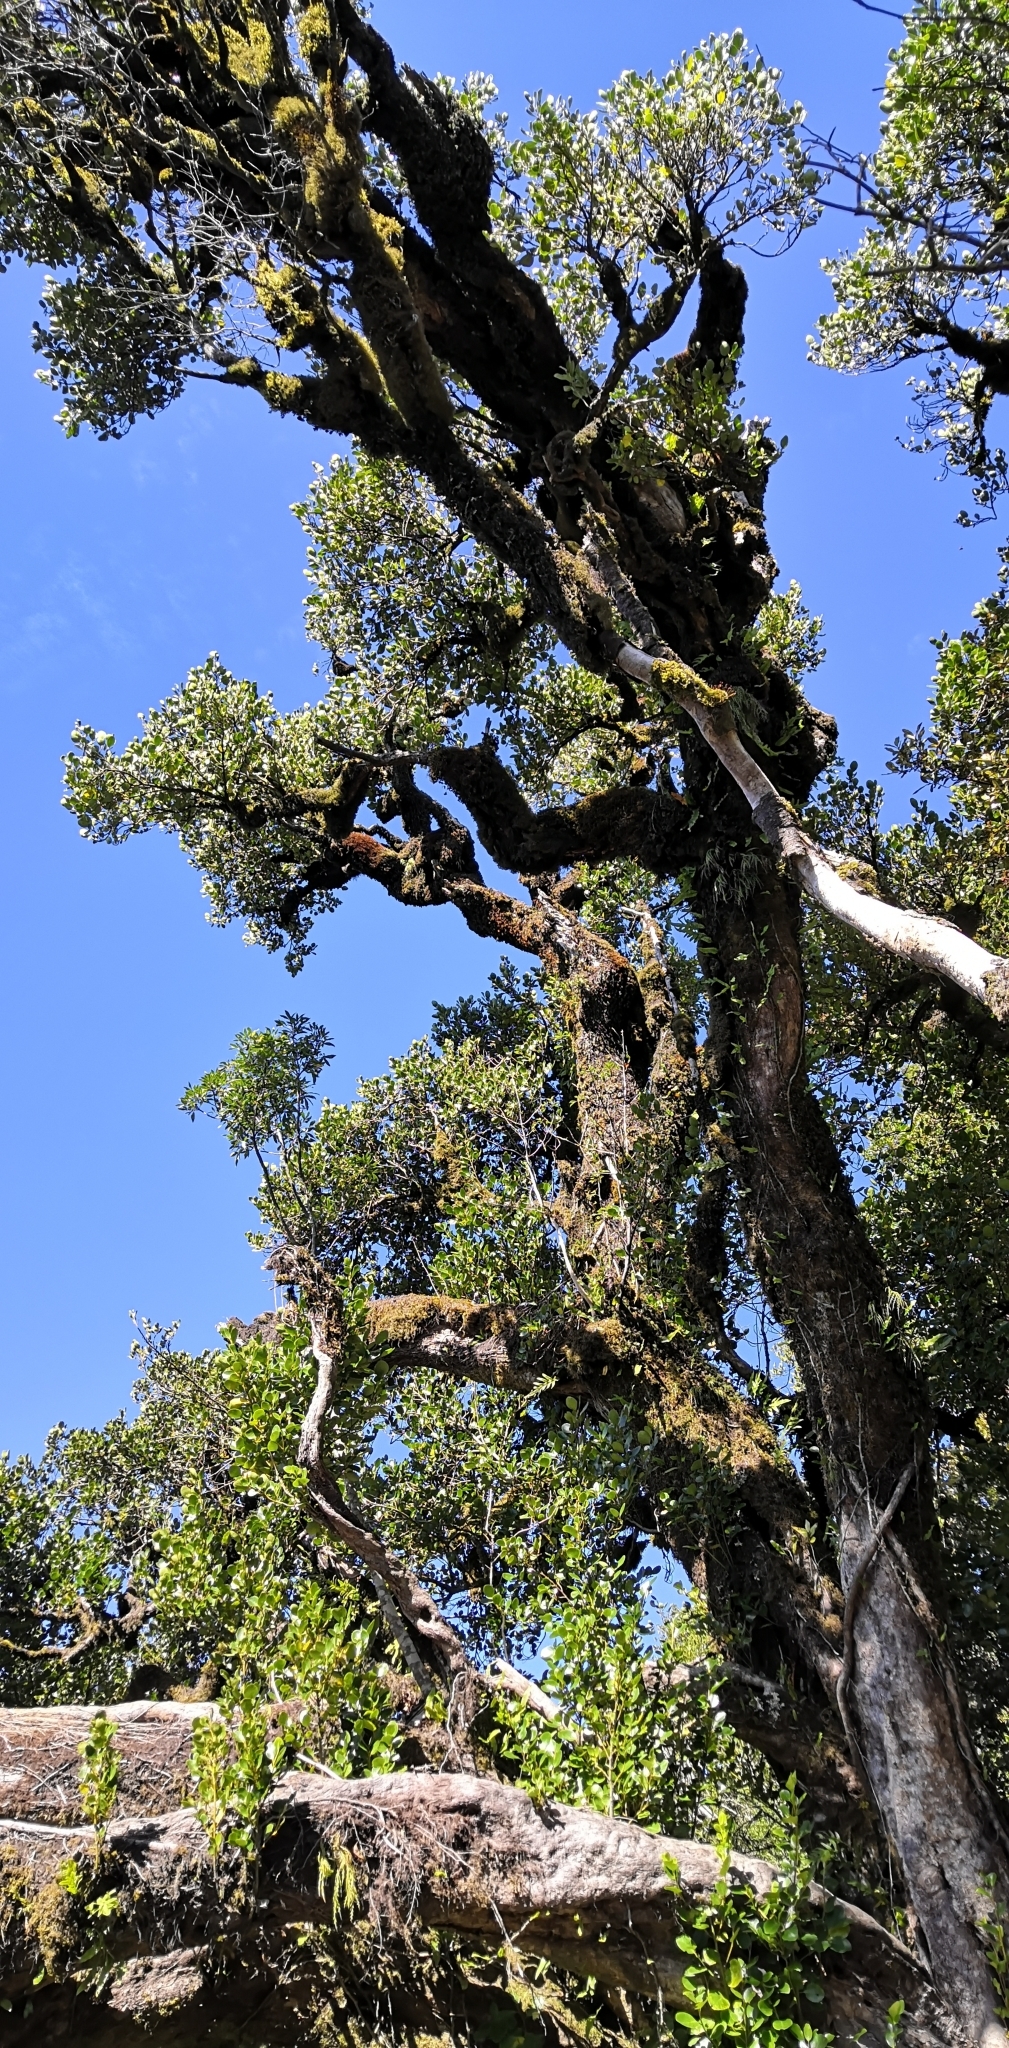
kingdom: Plantae
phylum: Tracheophyta
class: Magnoliopsida
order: Apiales
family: Griseliniaceae
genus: Griselinia
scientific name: Griselinia littoralis
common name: New zealand broadleaf
